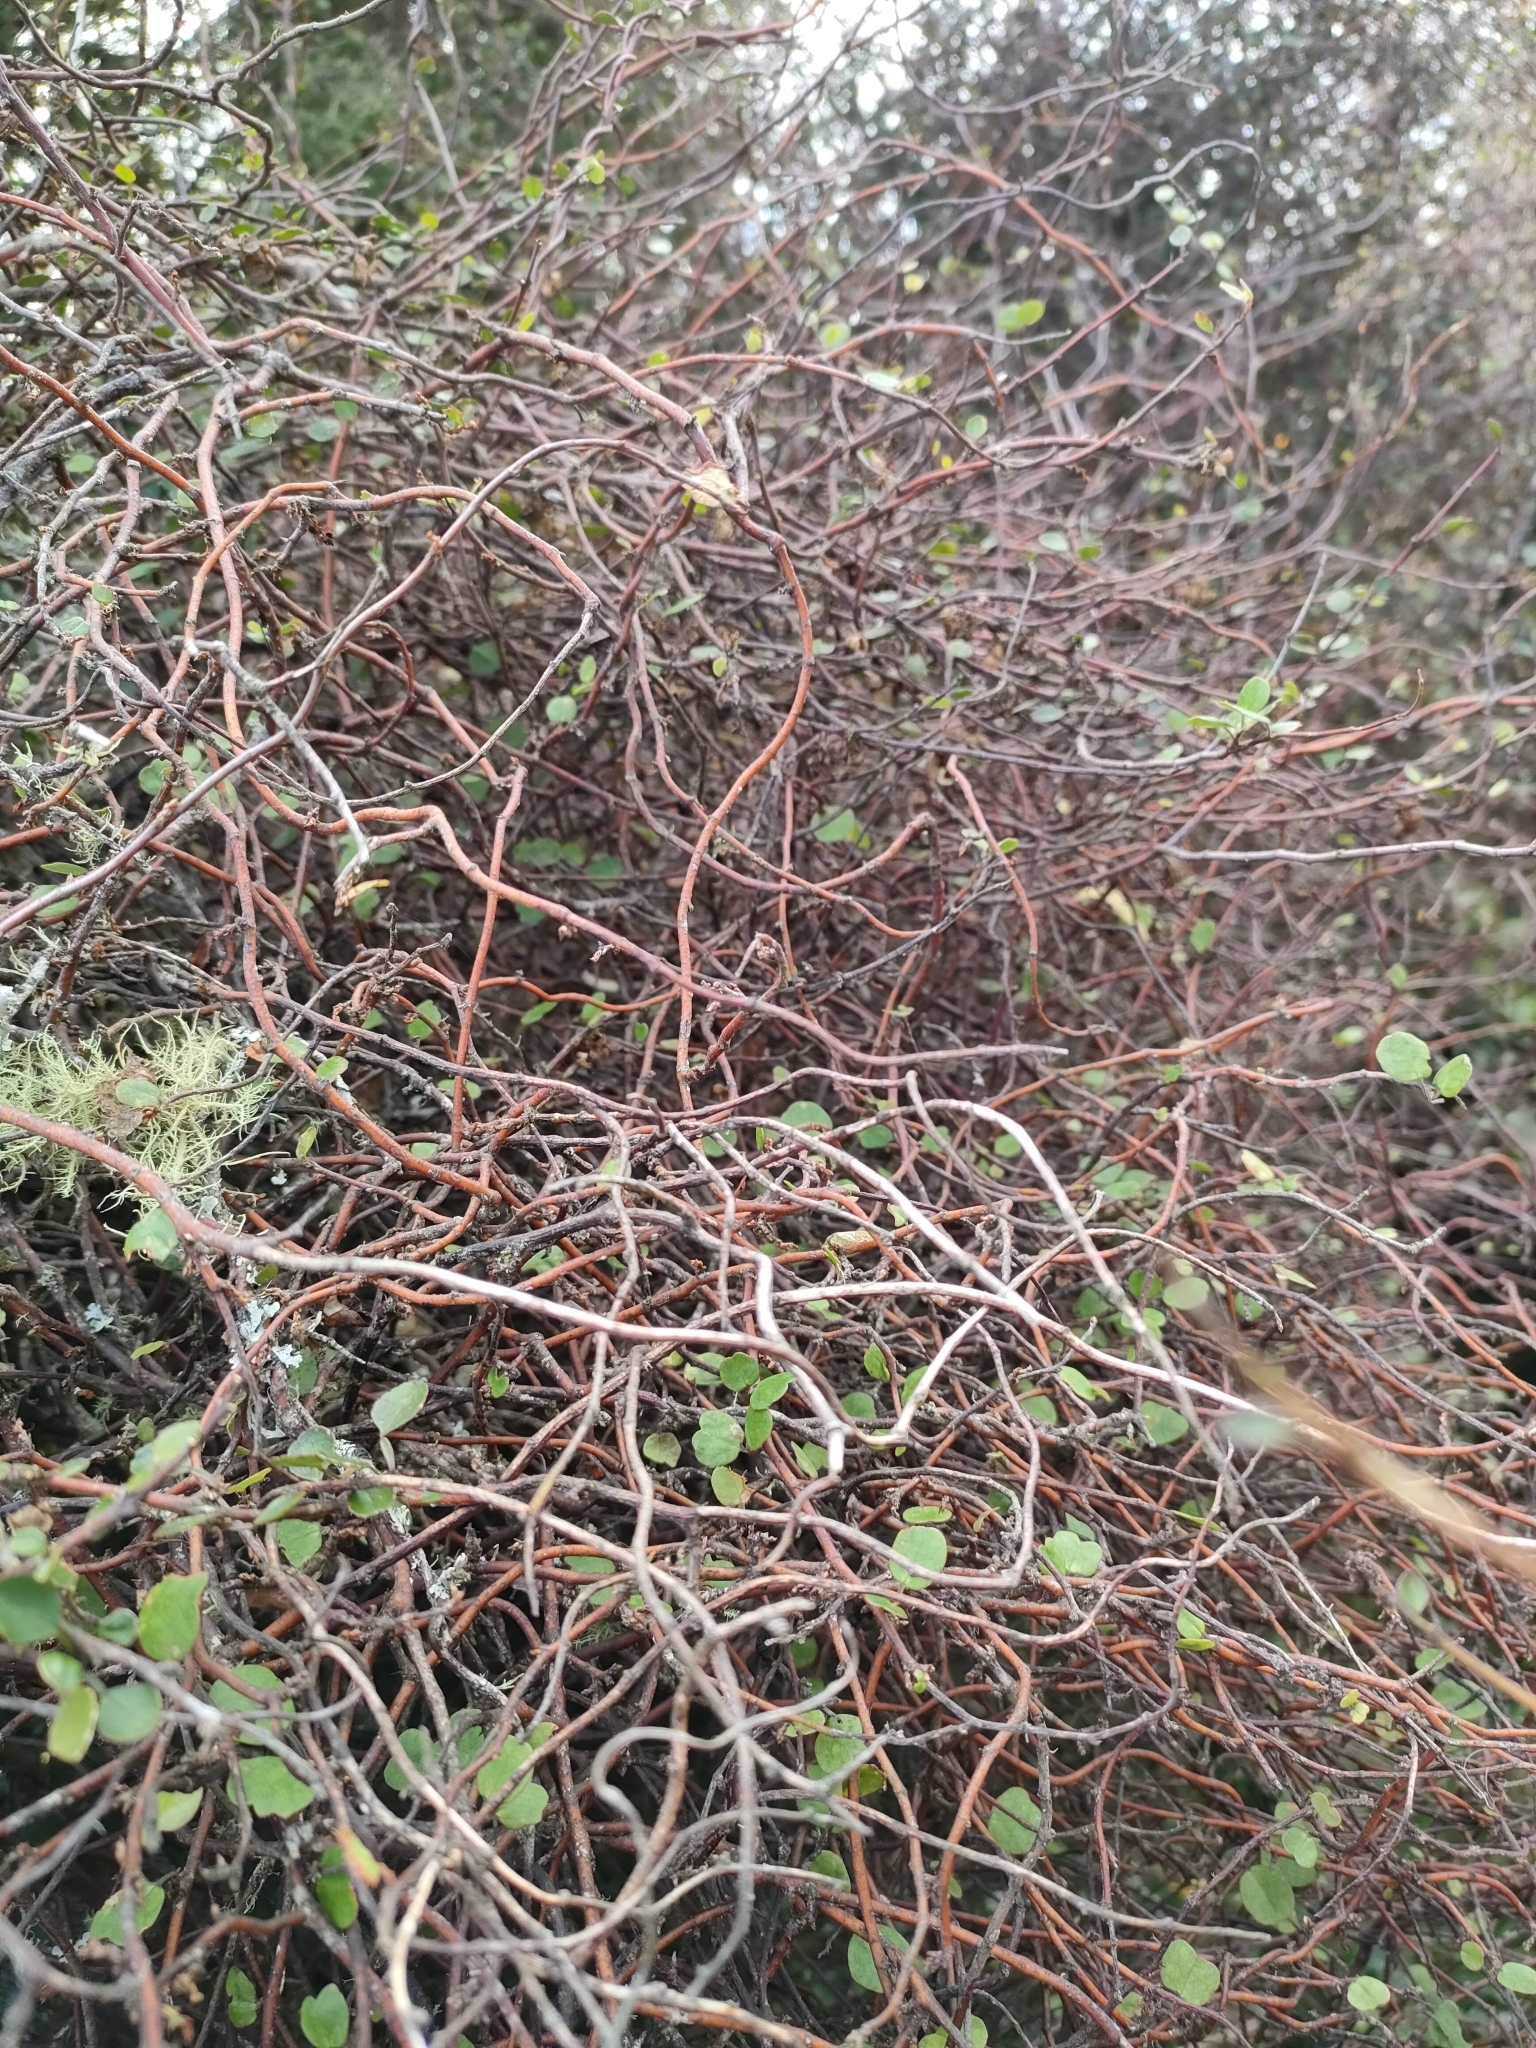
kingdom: Plantae
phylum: Tracheophyta
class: Magnoliopsida
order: Caryophyllales
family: Polygonaceae
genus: Muehlenbeckia
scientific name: Muehlenbeckia complexa
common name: Wireplant
